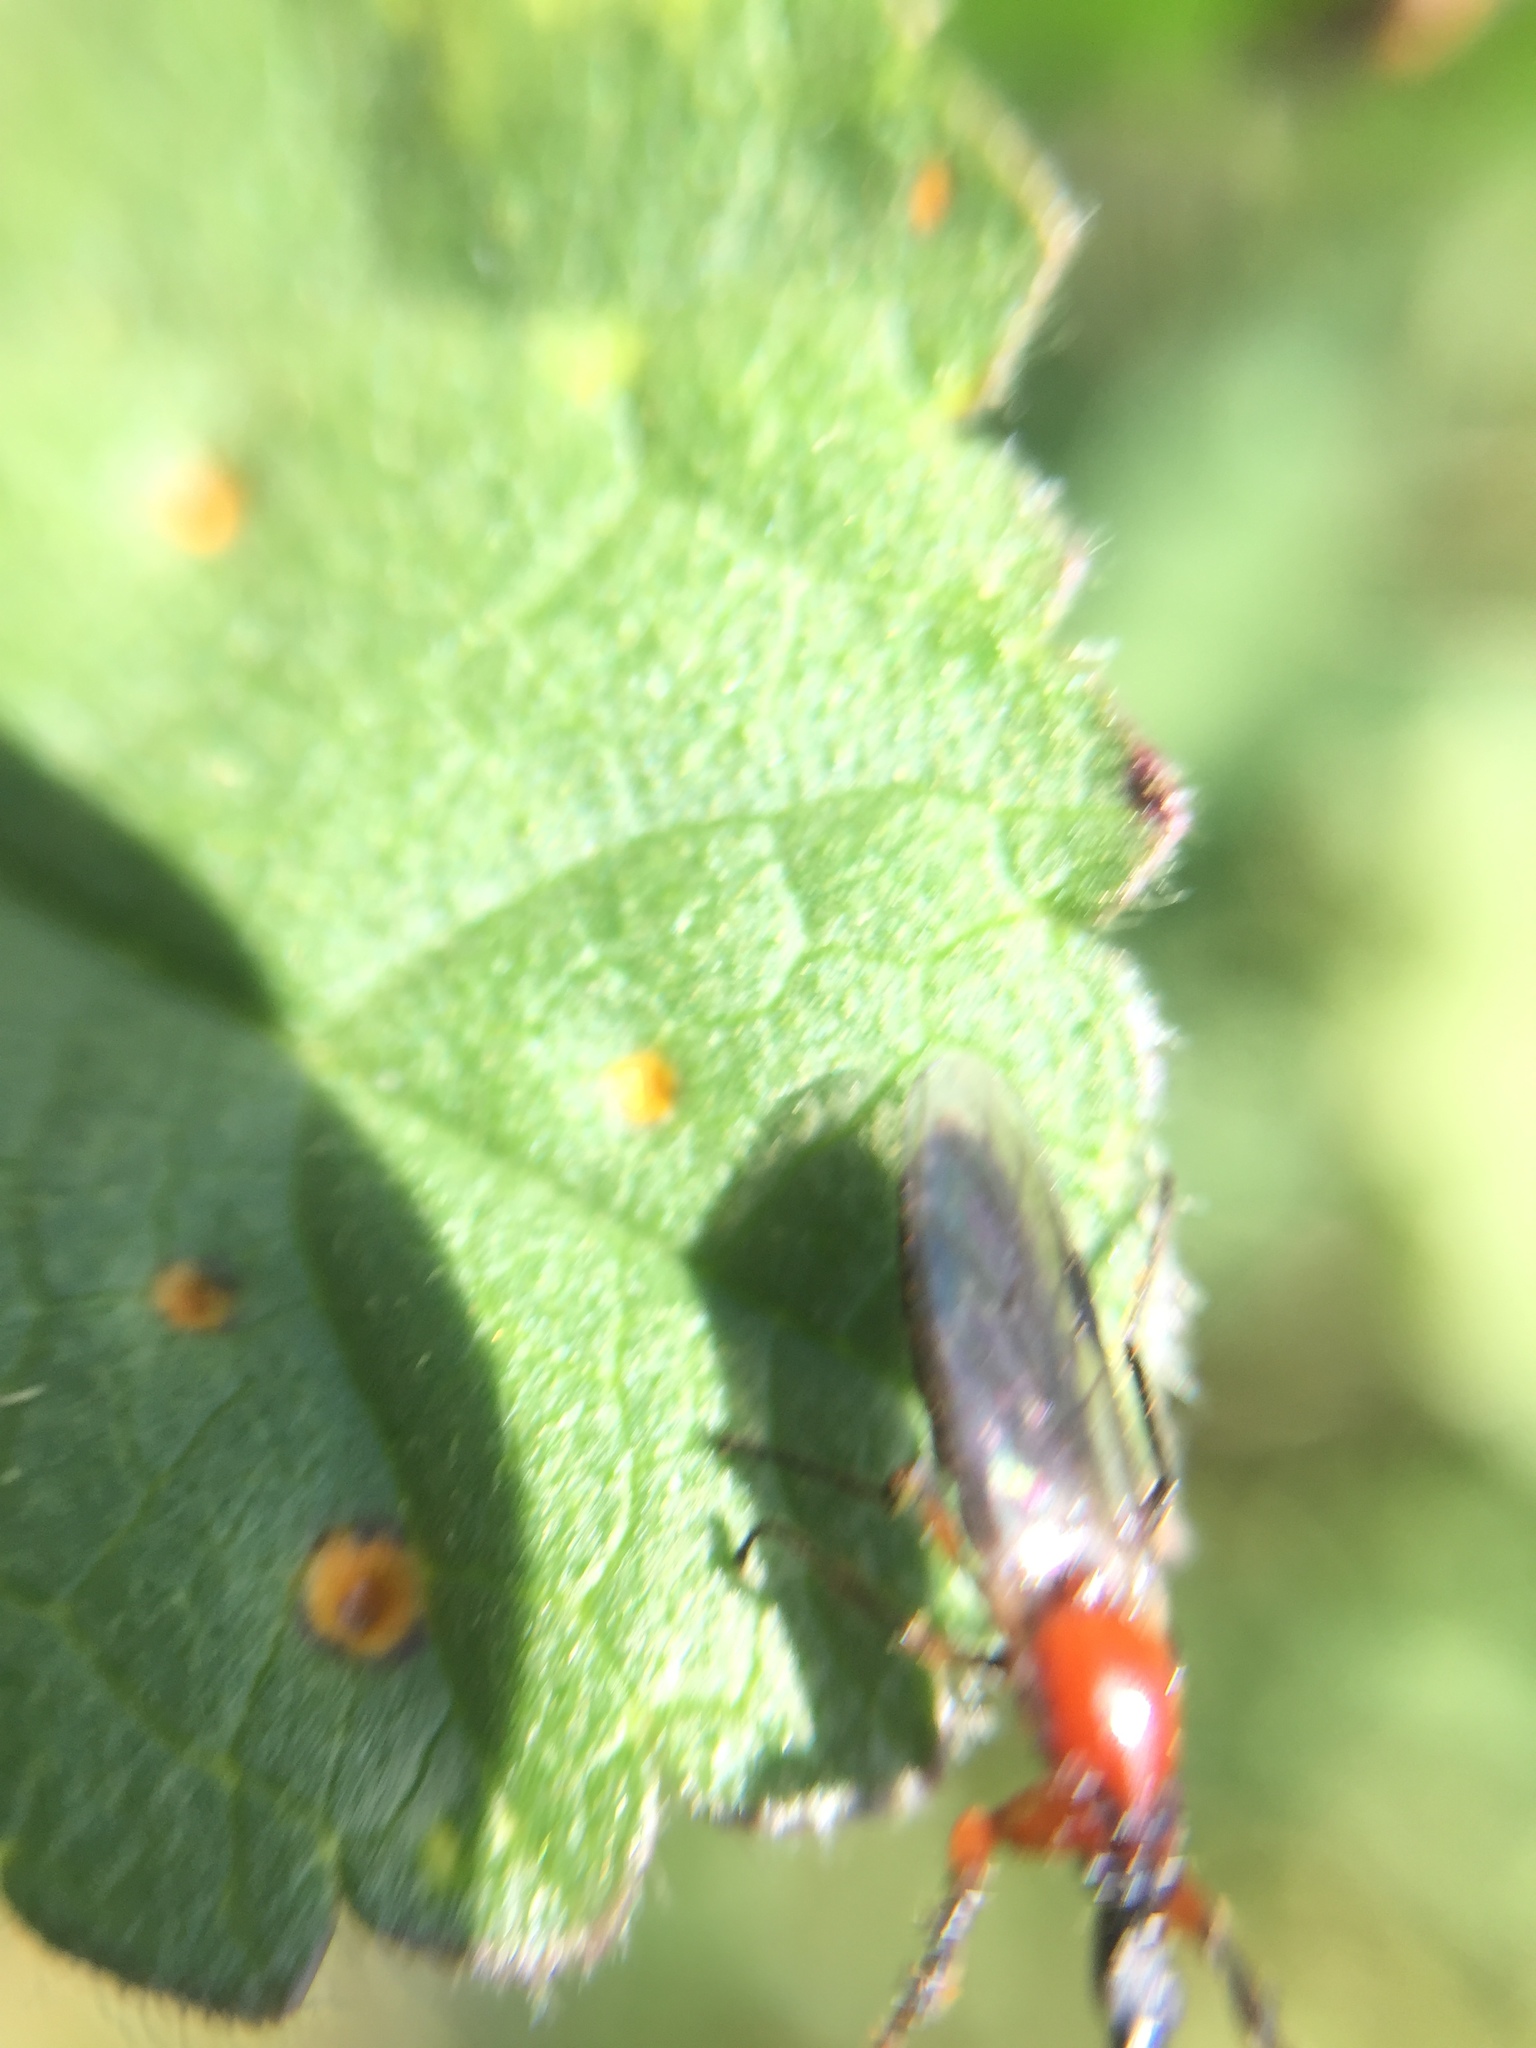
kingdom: Animalia
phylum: Arthropoda
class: Insecta
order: Diptera
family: Bibionidae
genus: Dilophus
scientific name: Dilophus strigilatus
